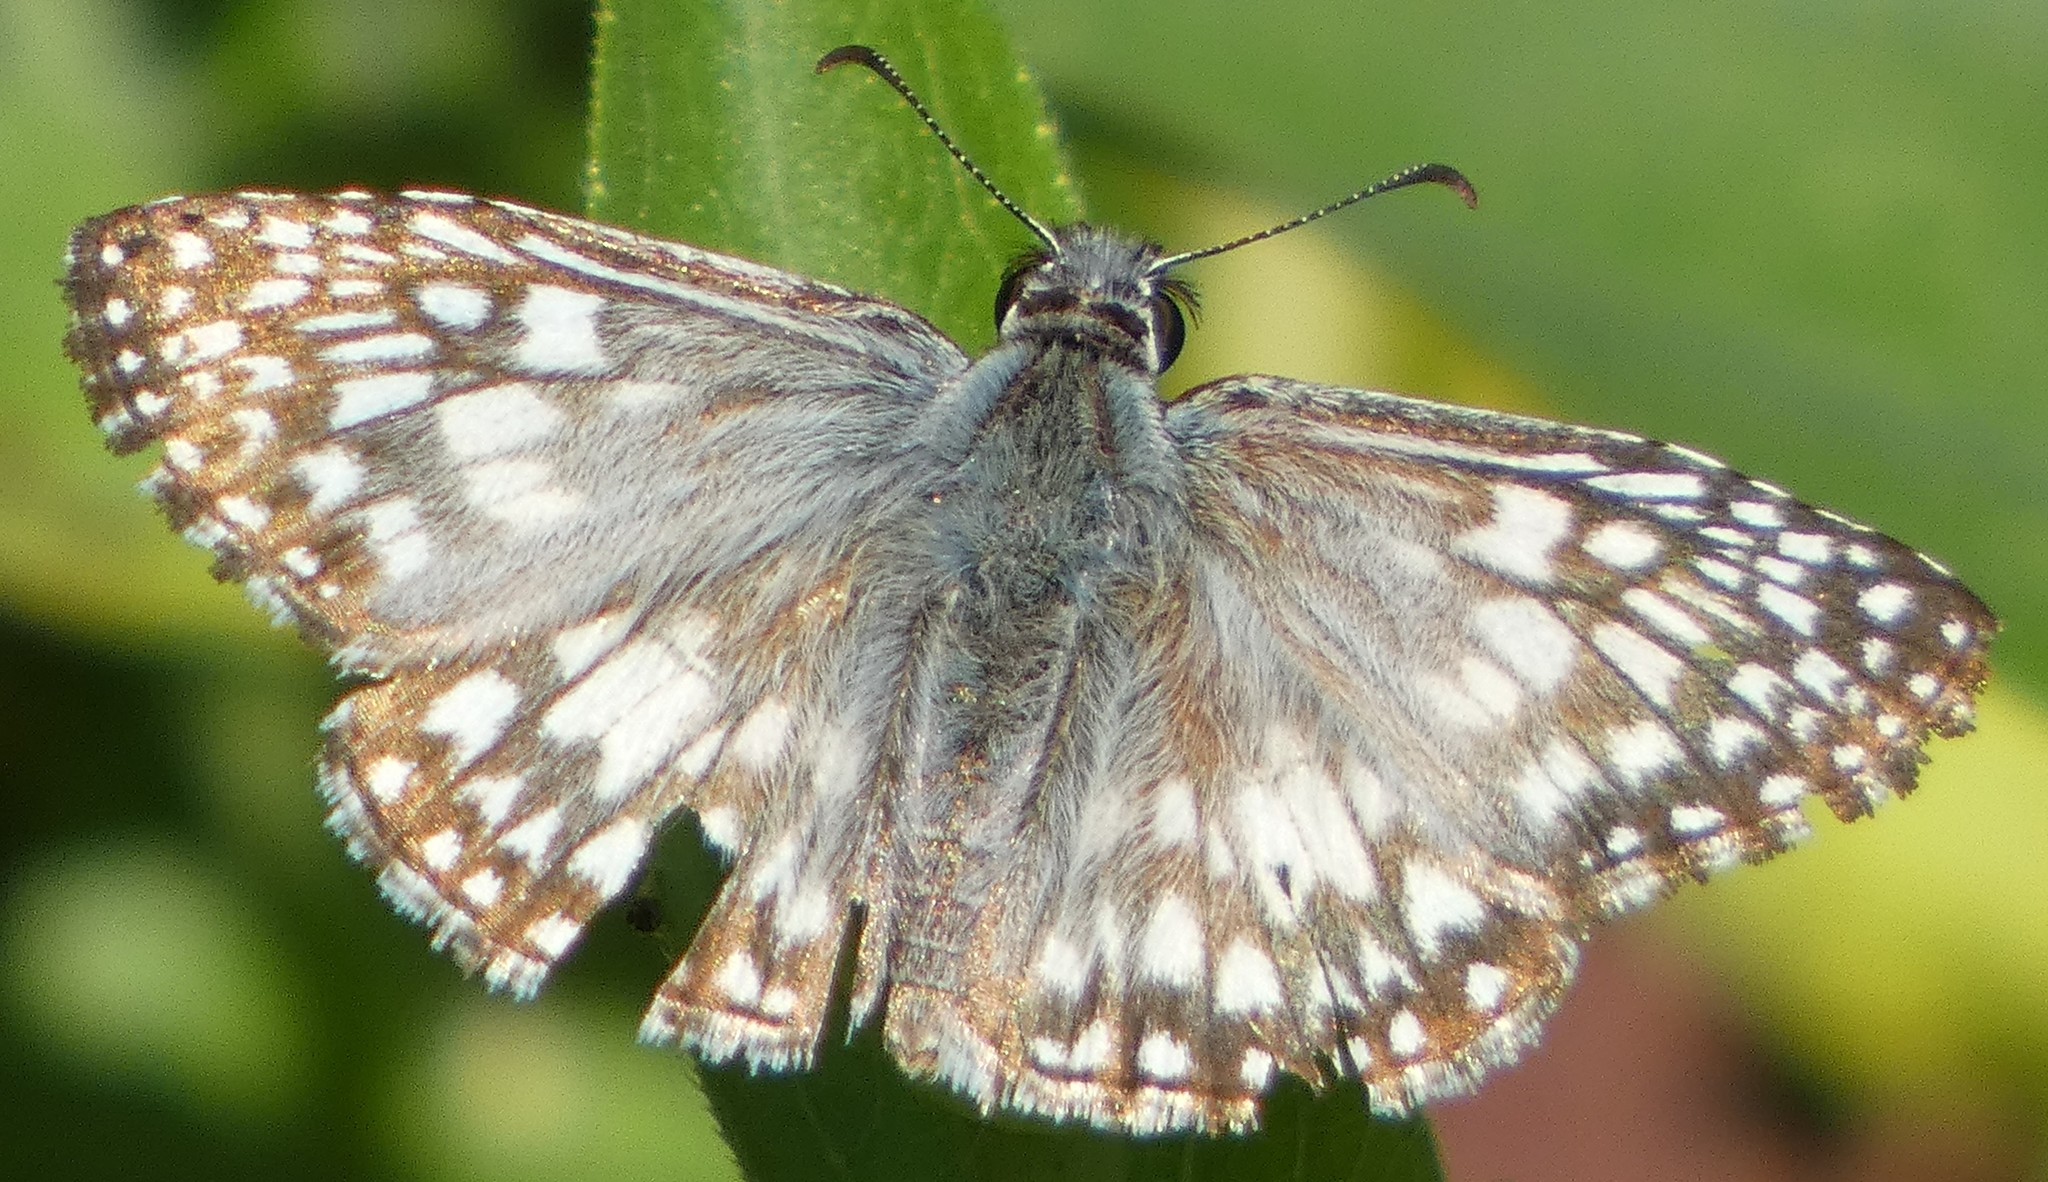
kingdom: Animalia
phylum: Arthropoda
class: Insecta
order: Lepidoptera
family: Hesperiidae
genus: Pyrgus
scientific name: Pyrgus oileus
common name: Tropical checkered-skipper
